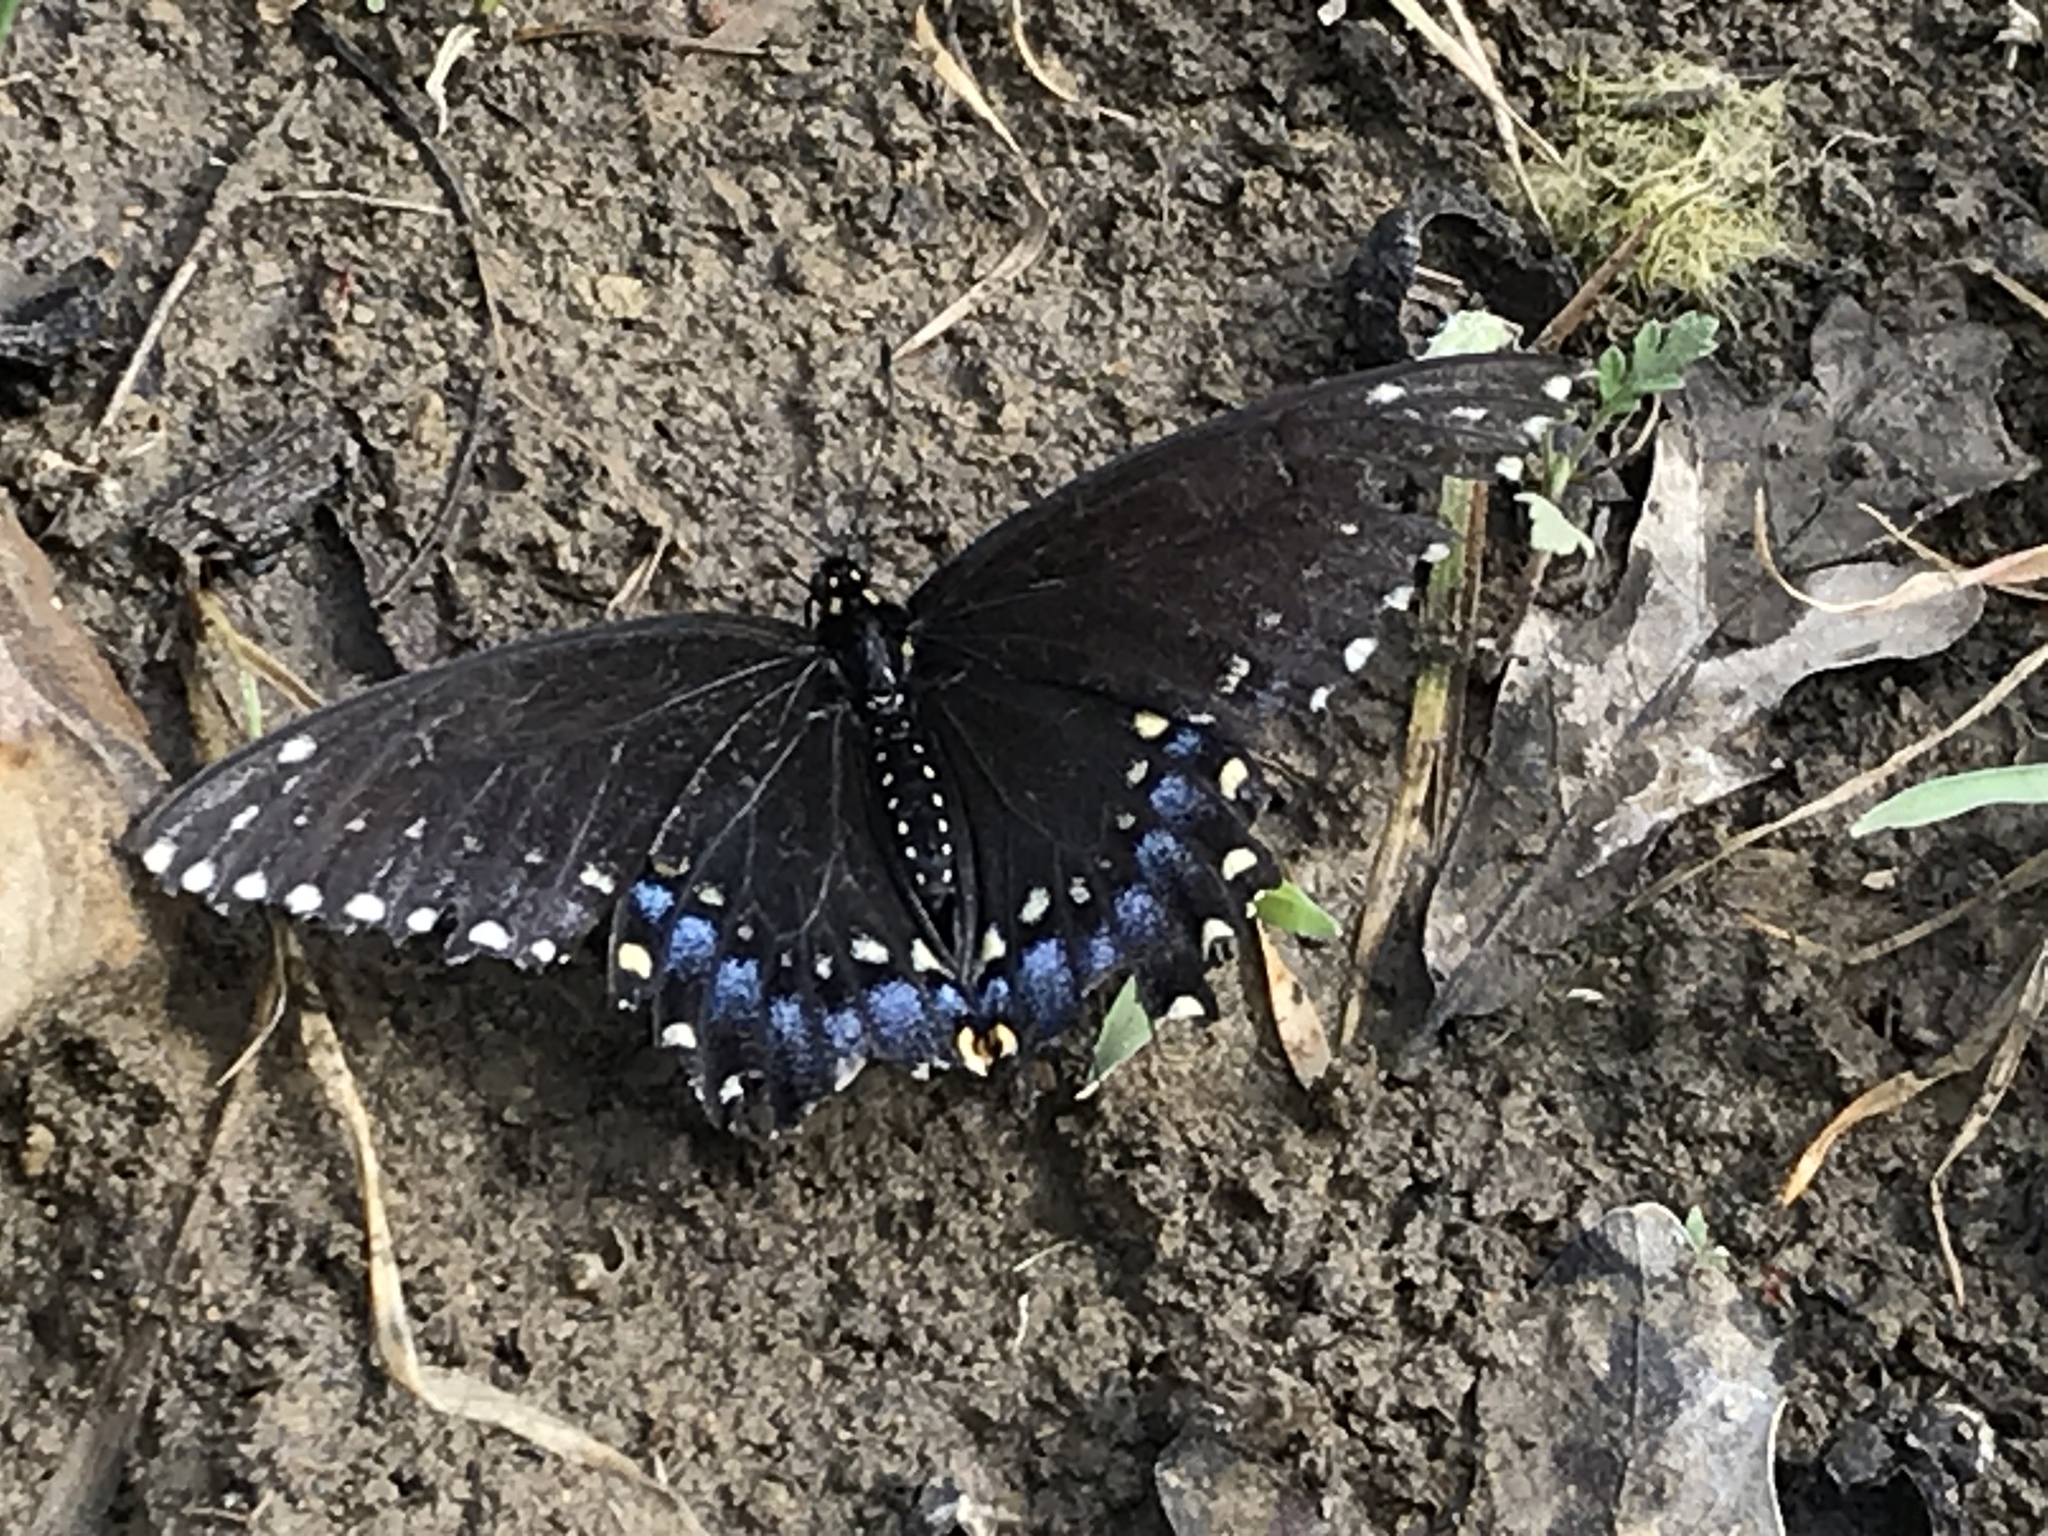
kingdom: Animalia
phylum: Arthropoda
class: Insecta
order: Lepidoptera
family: Papilionidae
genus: Papilio
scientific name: Papilio polyxenes
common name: Black swallowtail
